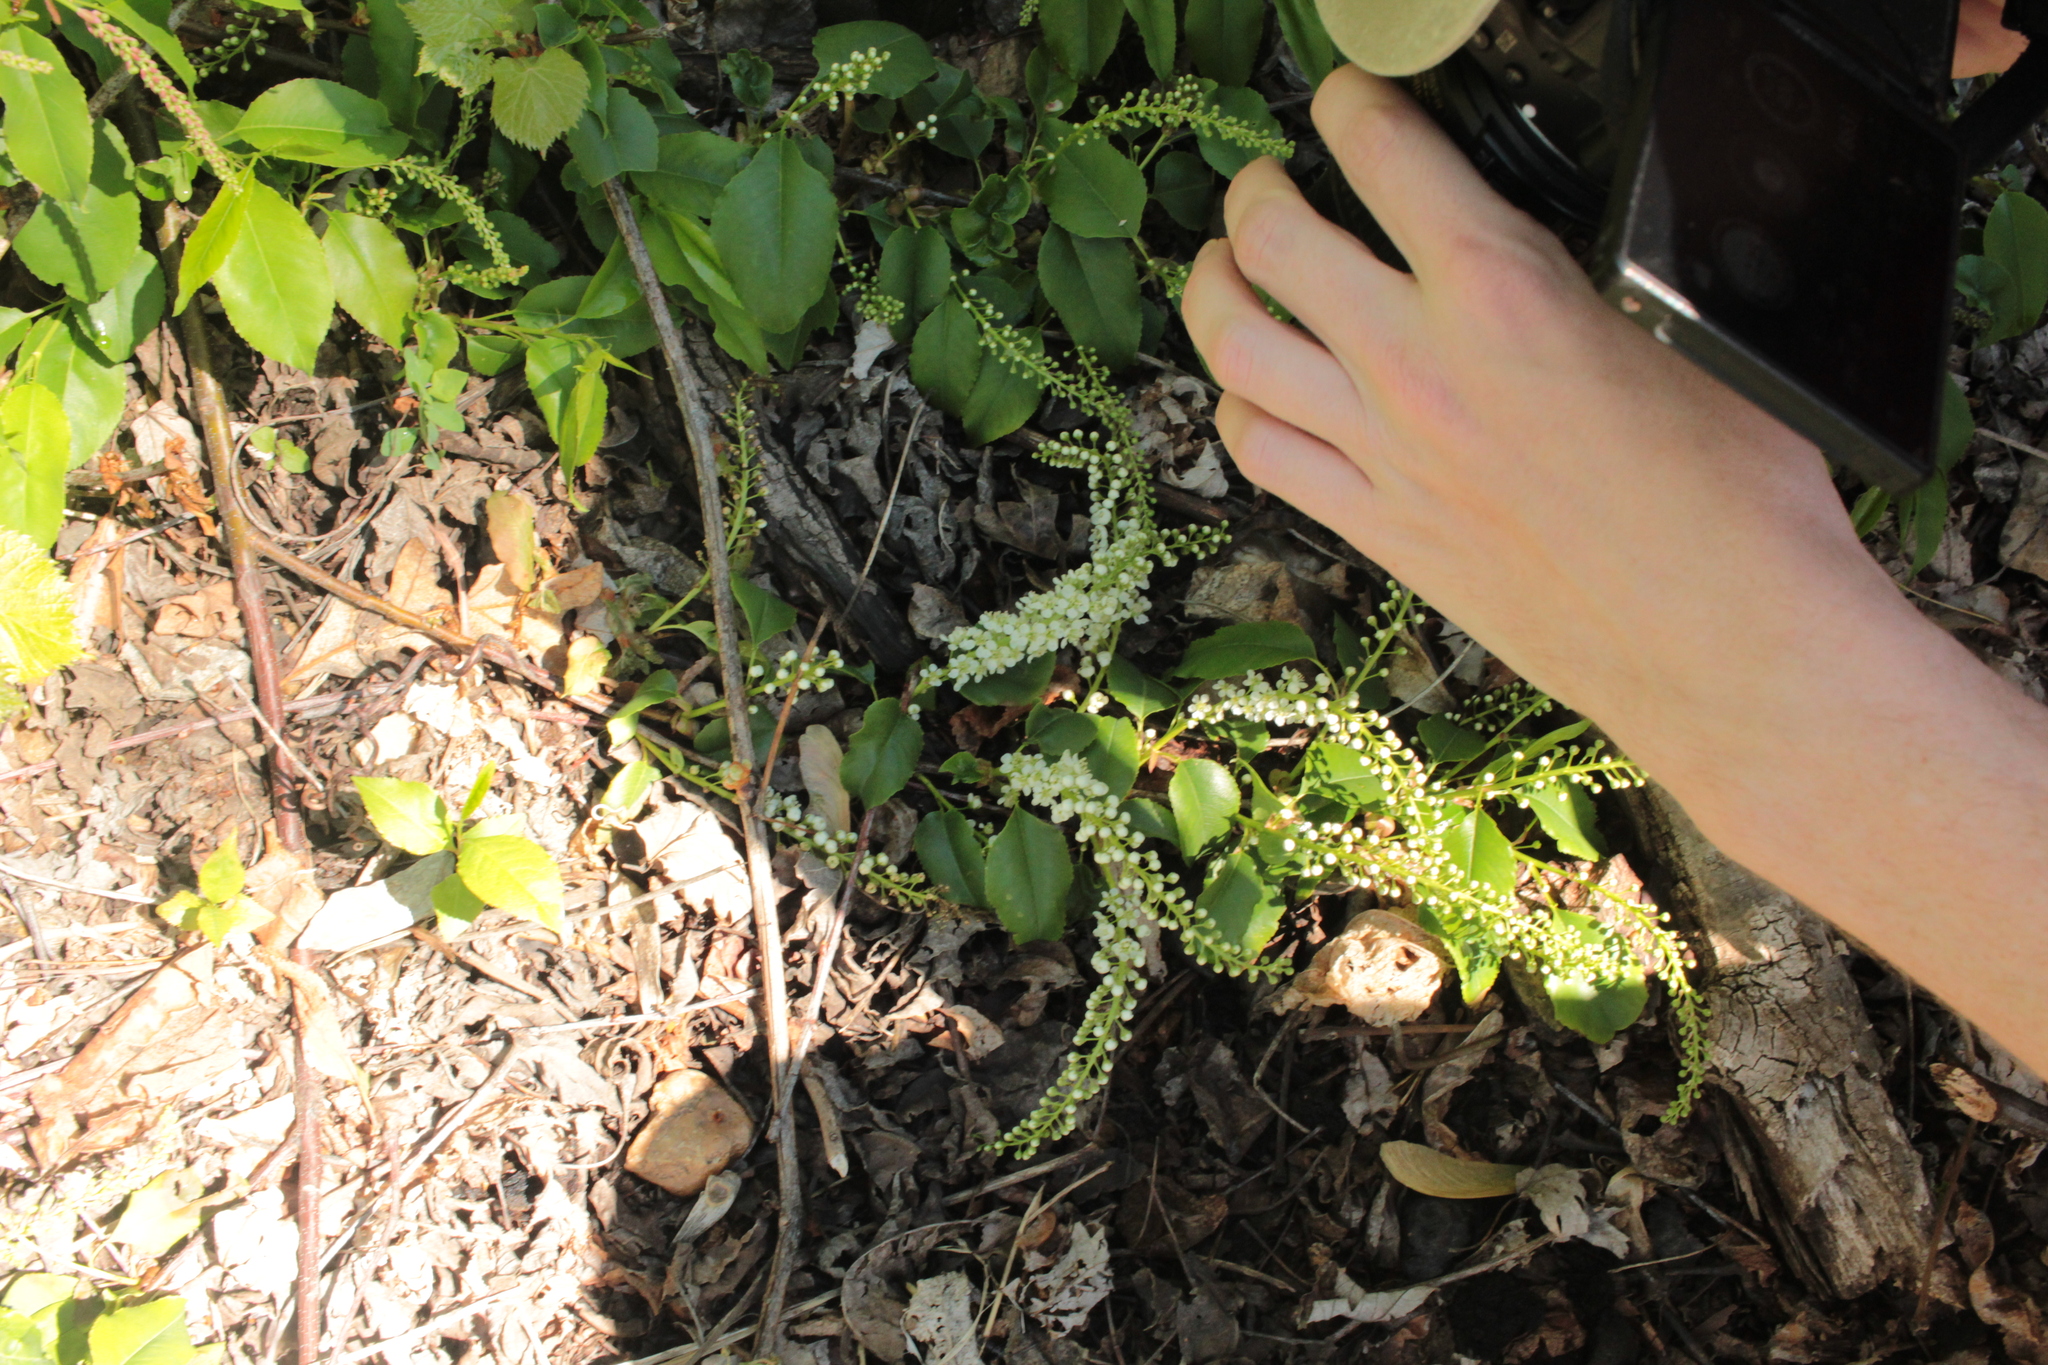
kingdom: Plantae
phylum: Tracheophyta
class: Magnoliopsida
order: Rosales
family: Rosaceae
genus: Prunus
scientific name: Prunus serotina
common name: Black cherry
